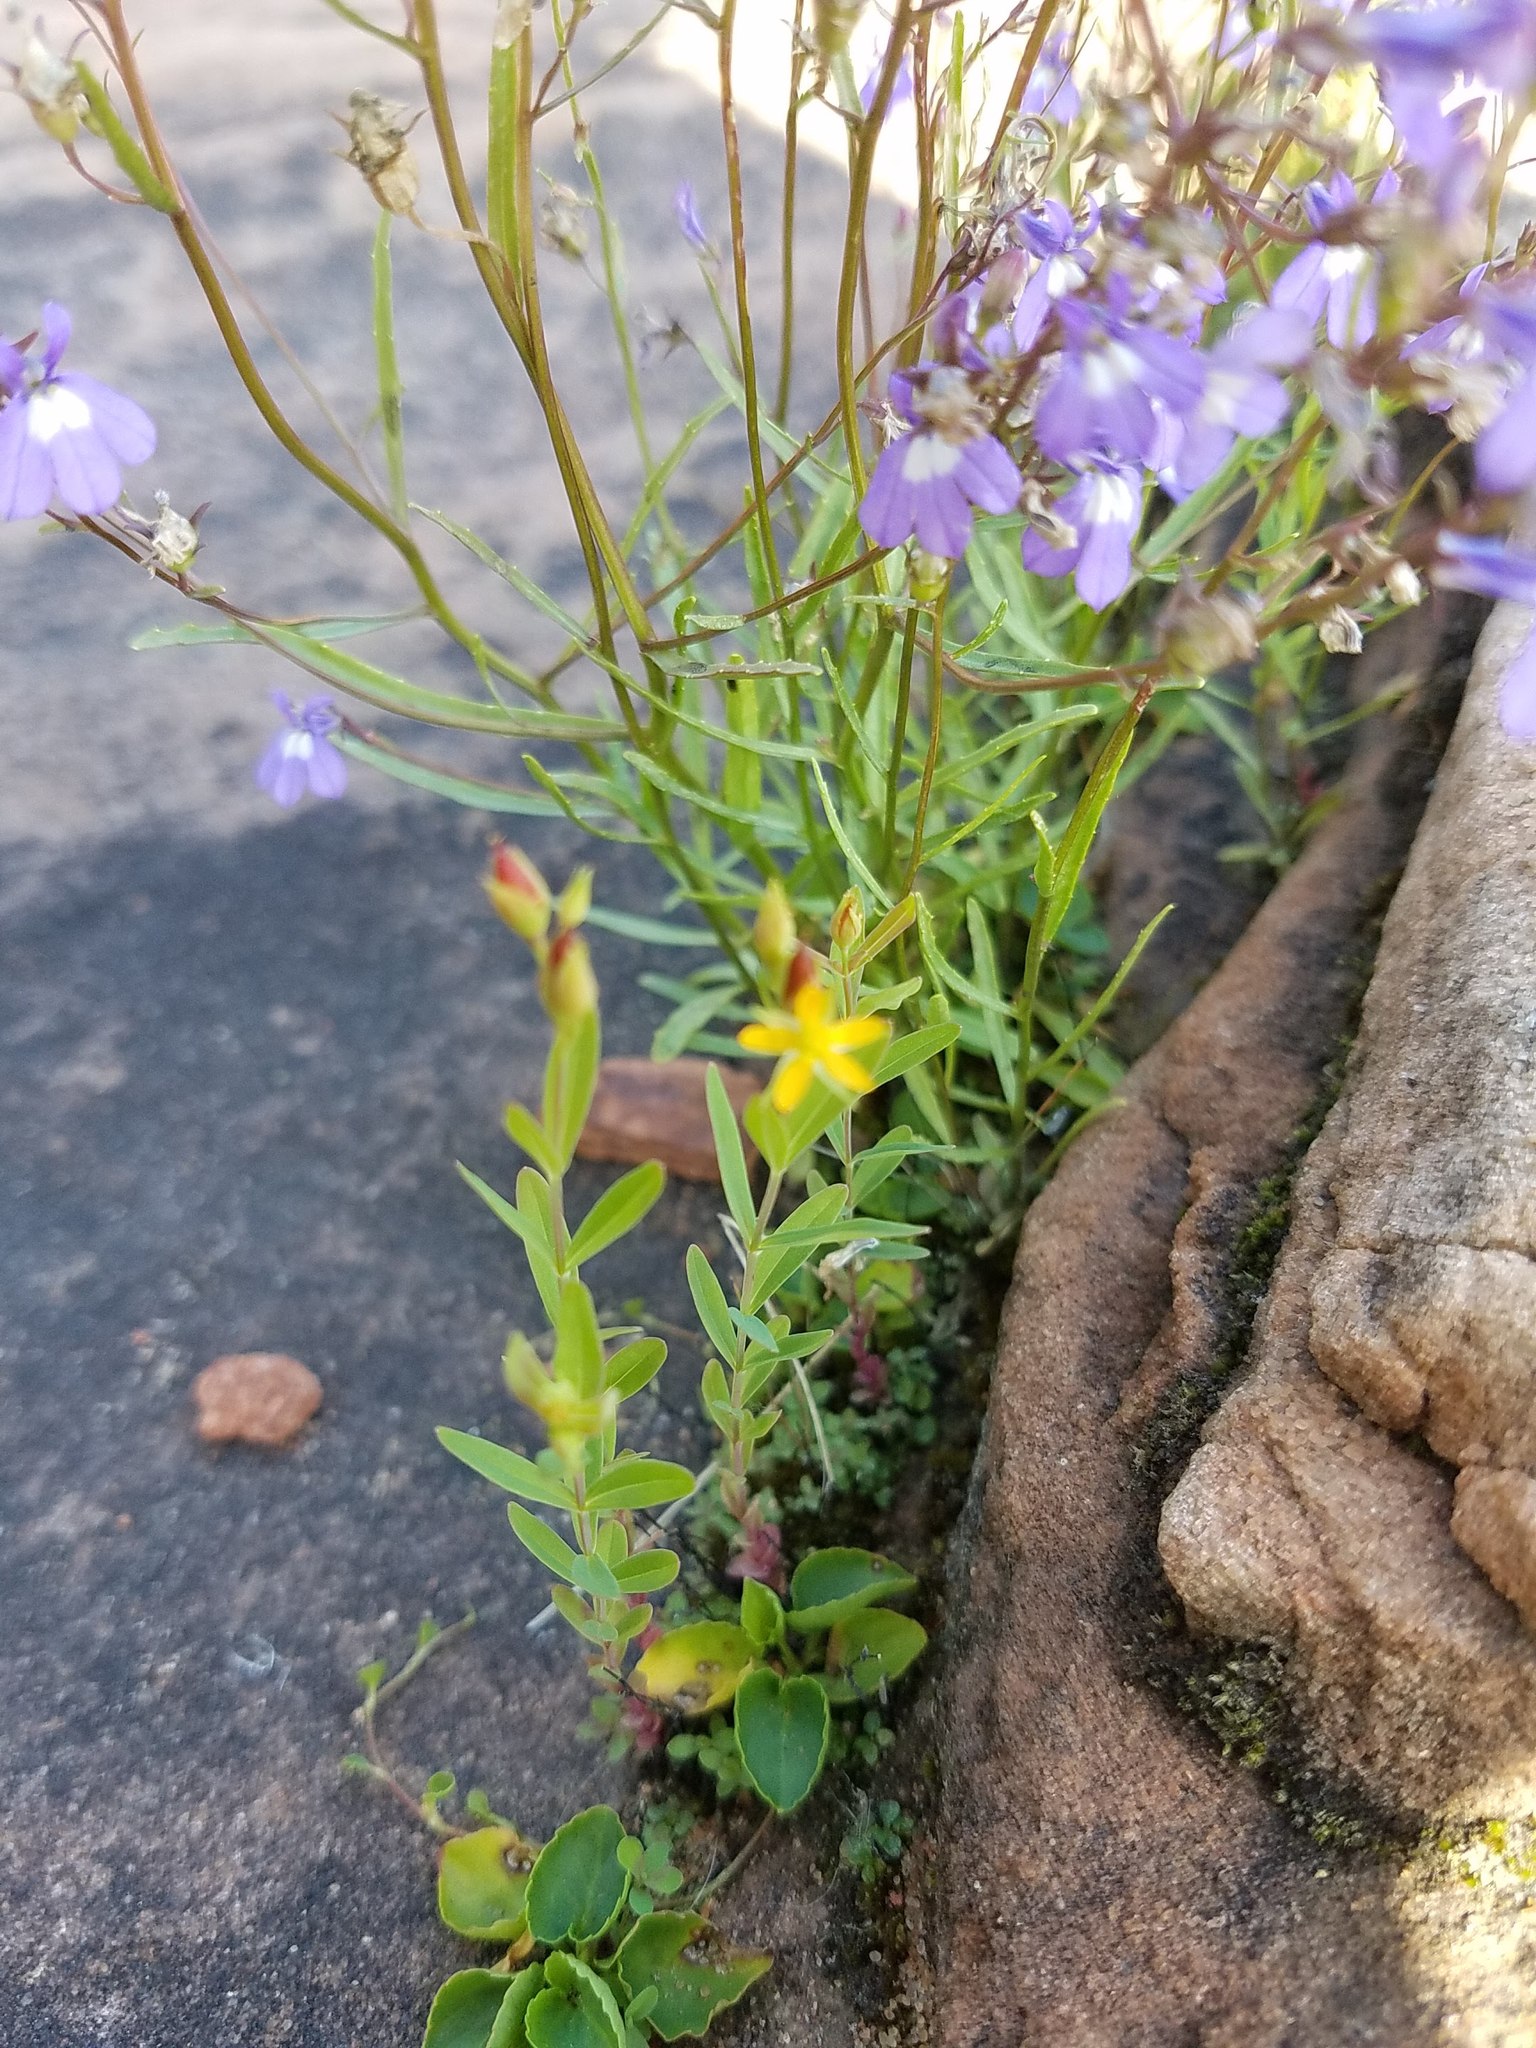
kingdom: Plantae
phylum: Tracheophyta
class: Magnoliopsida
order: Malpighiales
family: Hypericaceae
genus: Hypericum
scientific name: Hypericum majus
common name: Greater canadian st. john's-wort
